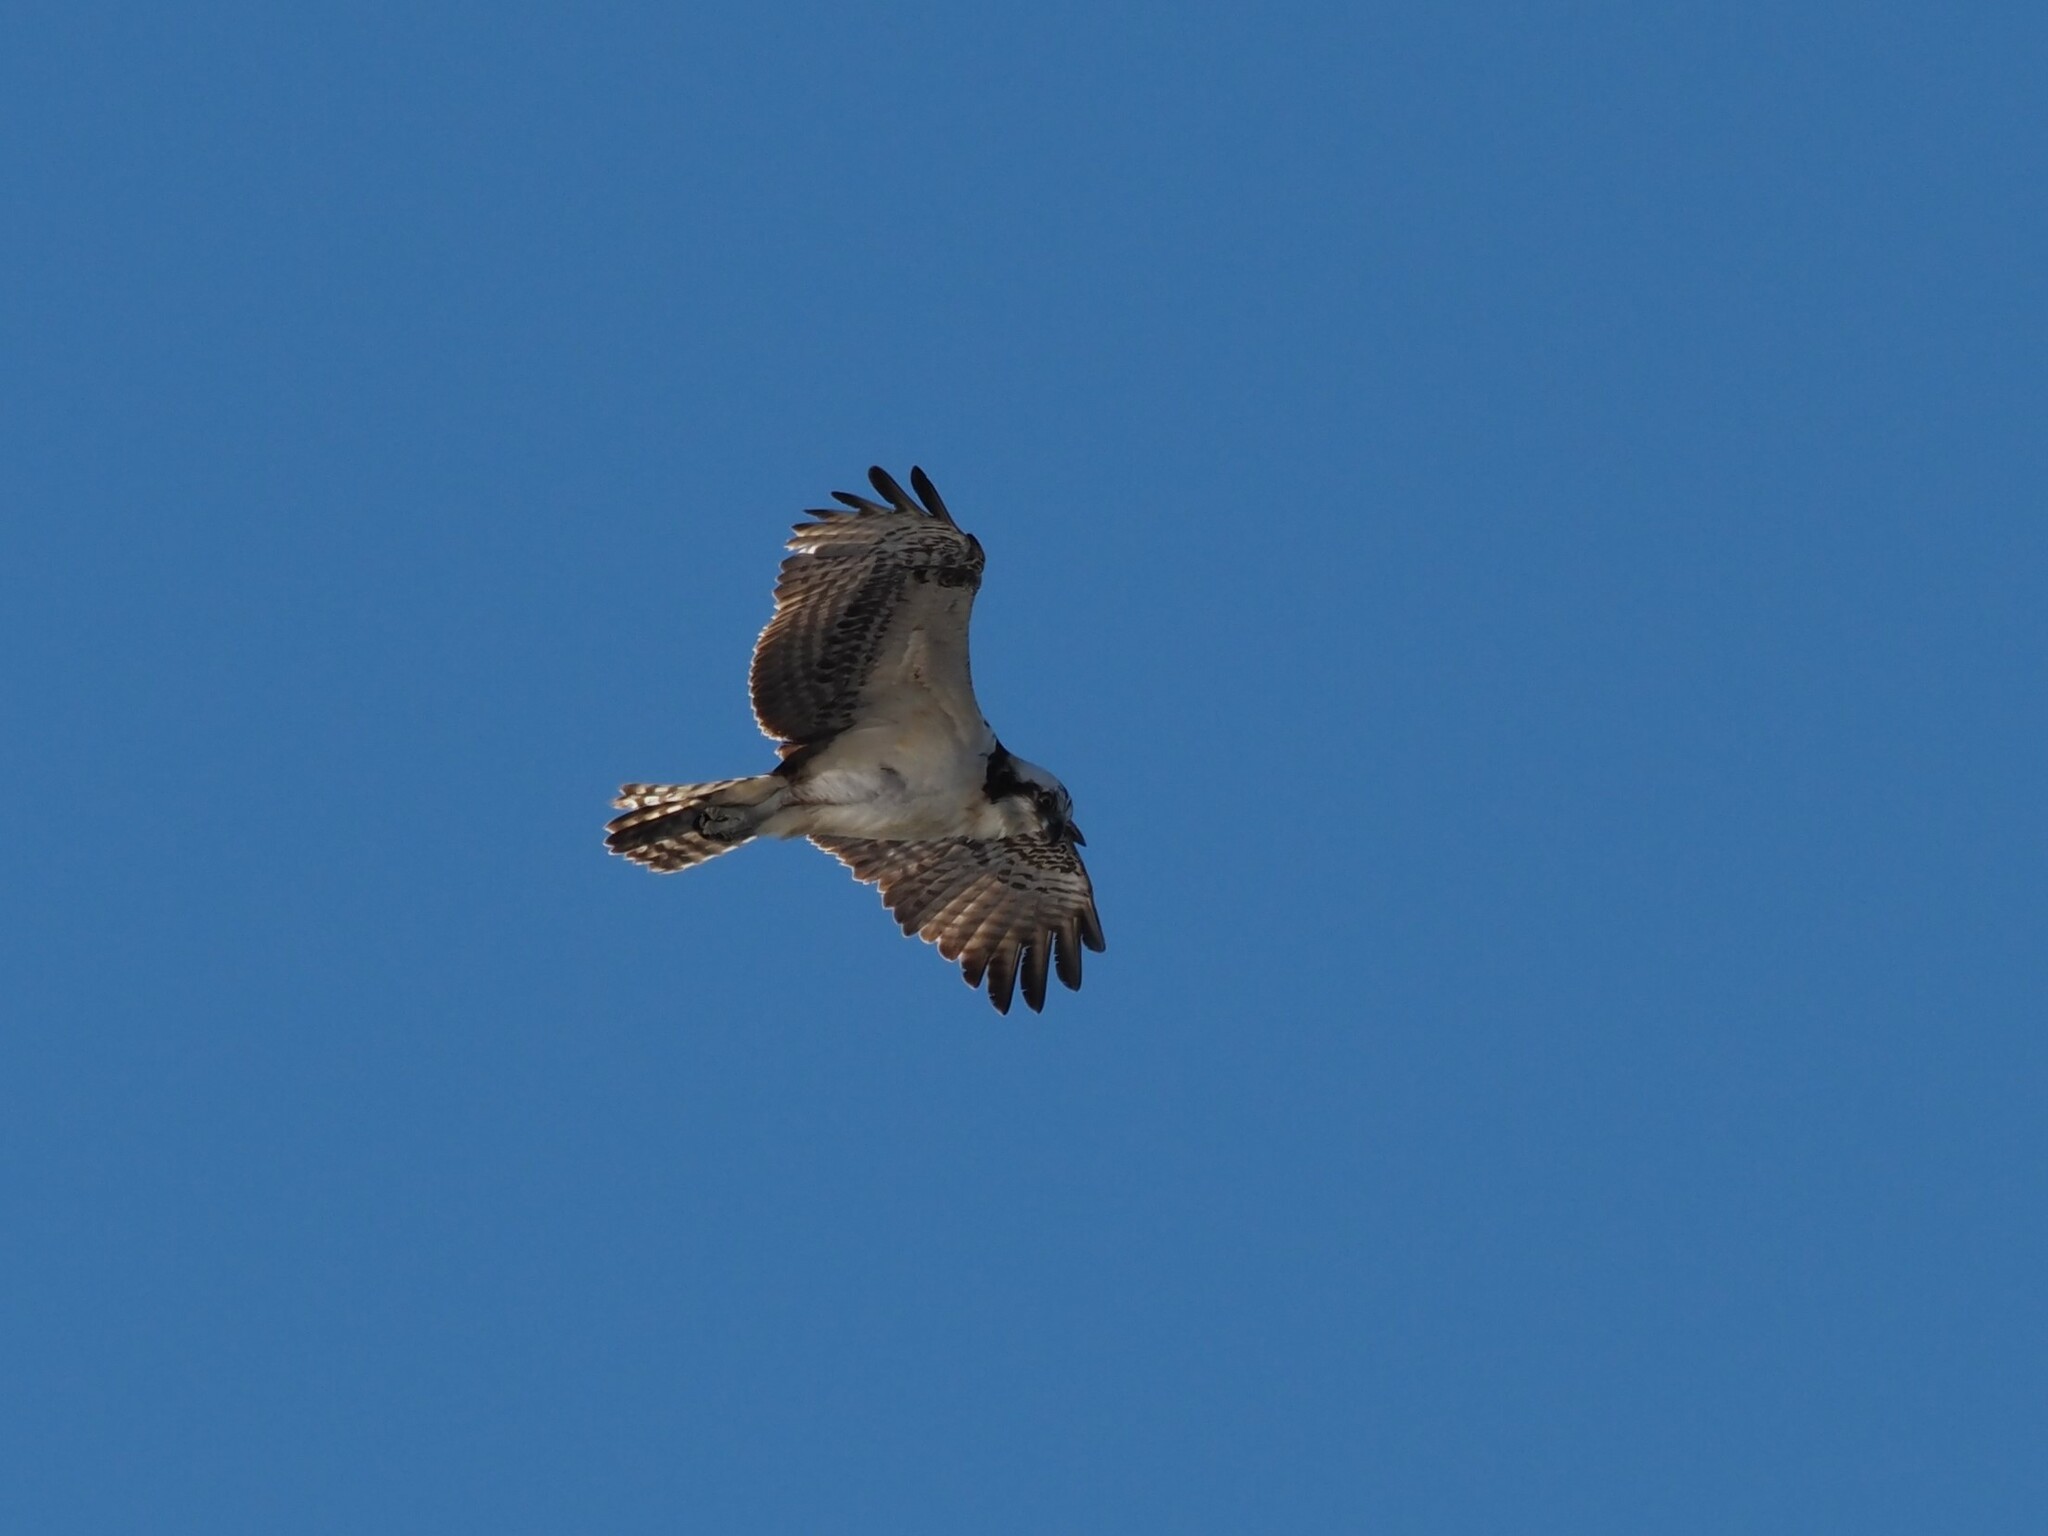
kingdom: Animalia
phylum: Chordata
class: Aves
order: Accipitriformes
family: Pandionidae
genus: Pandion
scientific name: Pandion haliaetus
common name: Osprey
